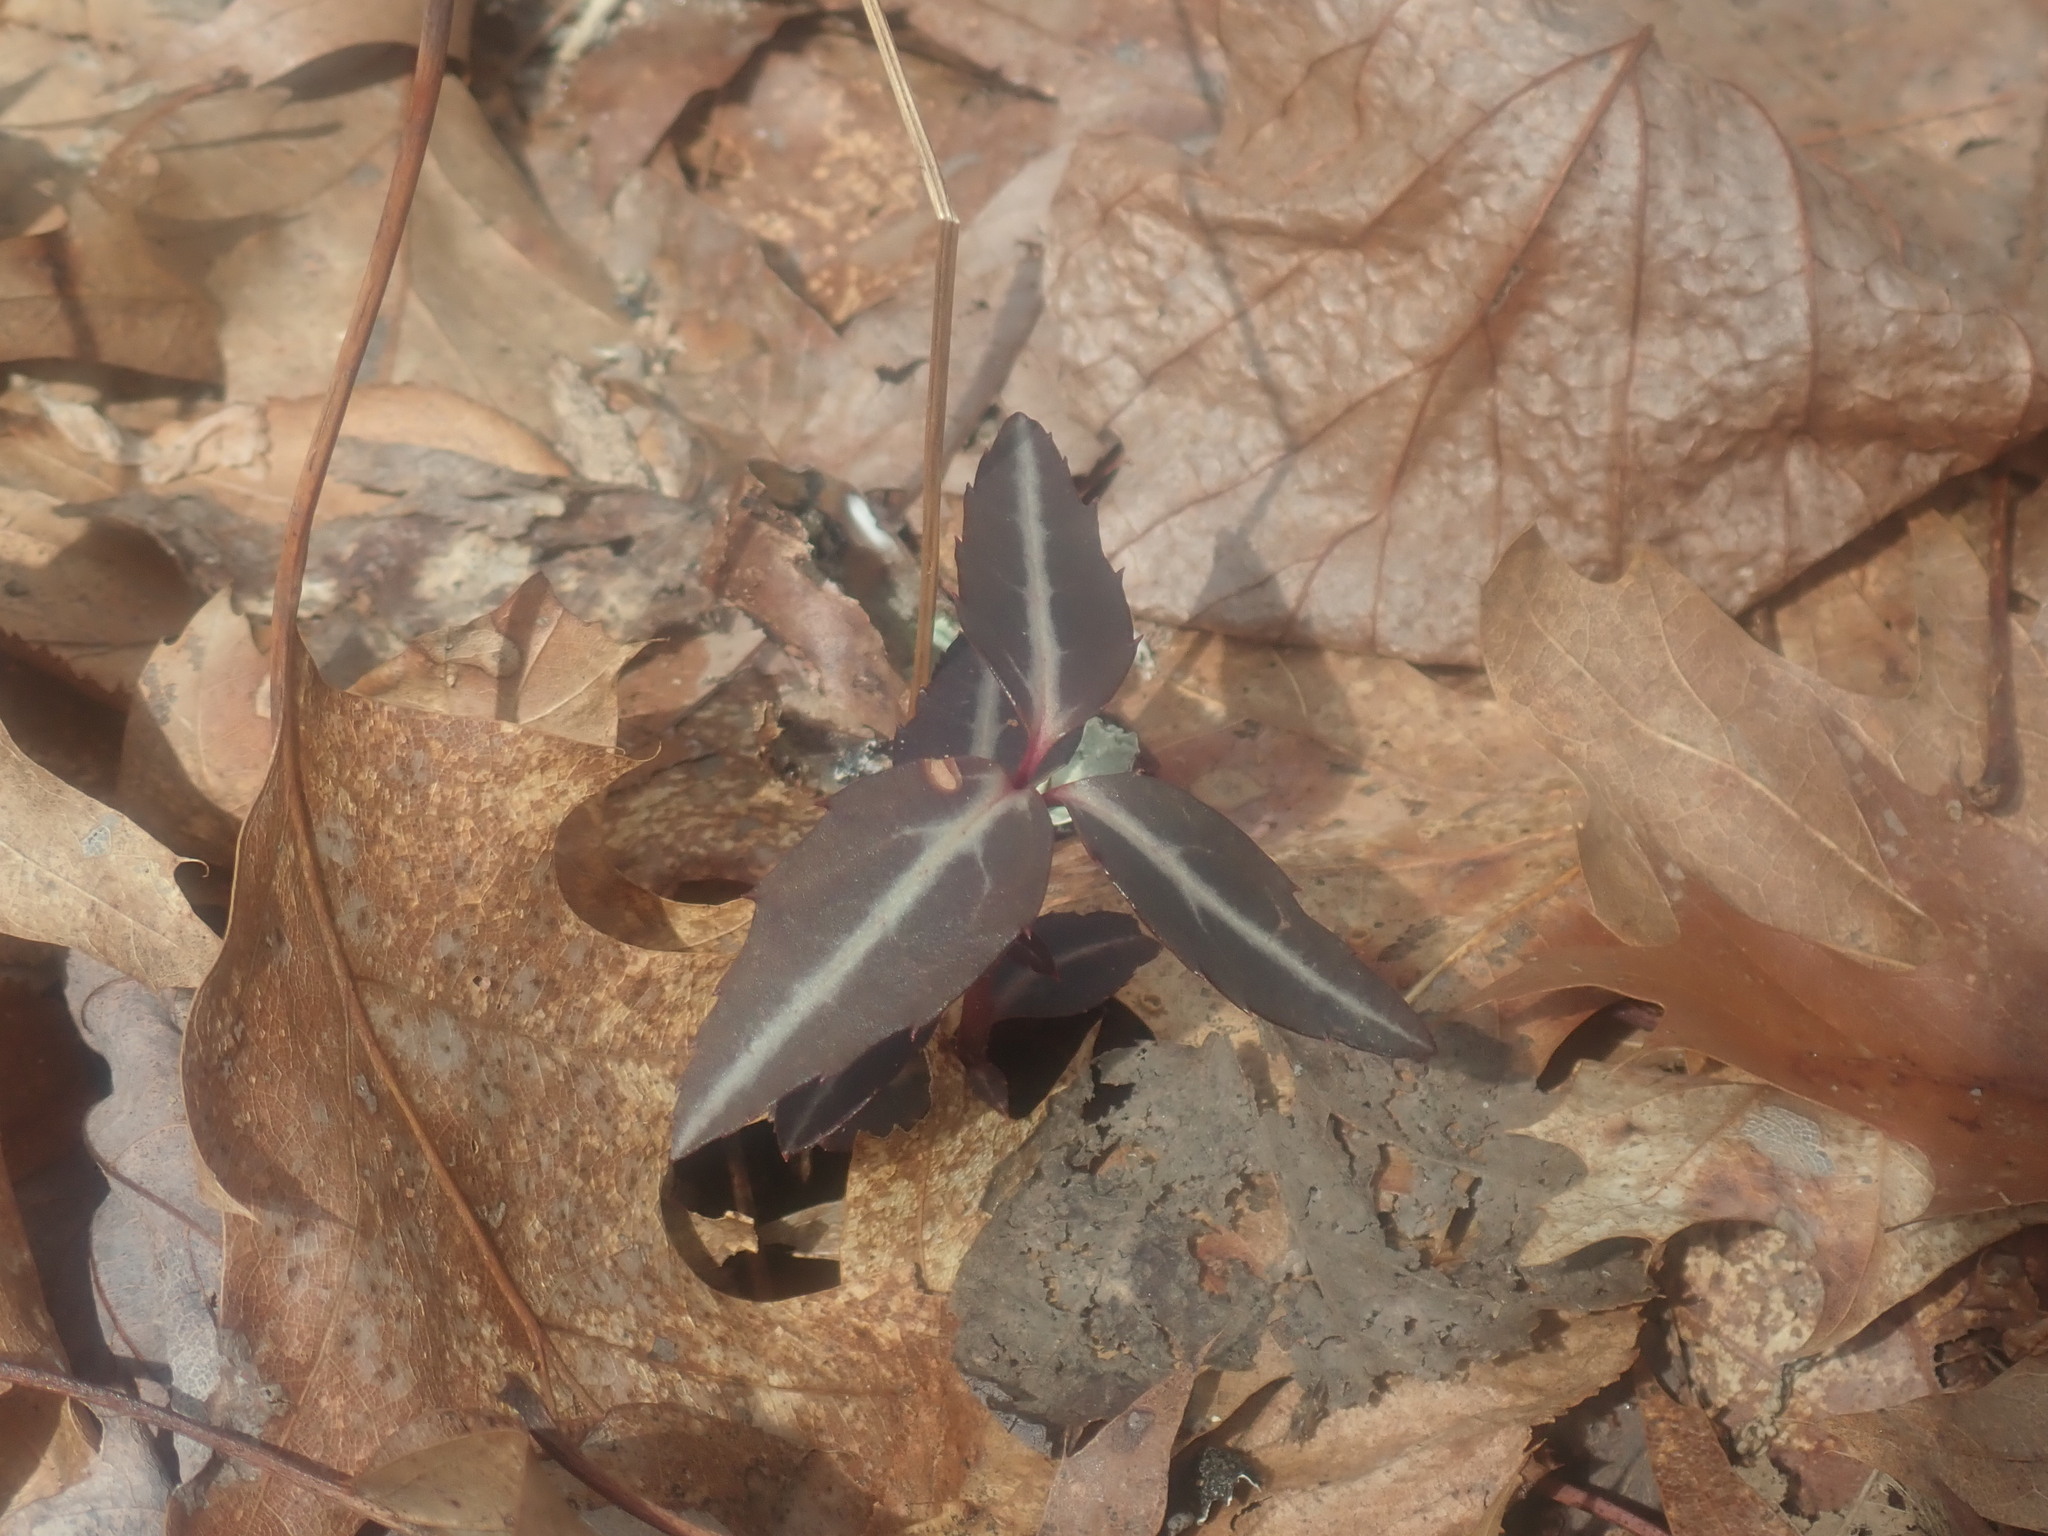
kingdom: Plantae
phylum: Tracheophyta
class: Magnoliopsida
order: Ericales
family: Ericaceae
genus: Chimaphila
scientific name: Chimaphila maculata
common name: Spotted pipsissewa
